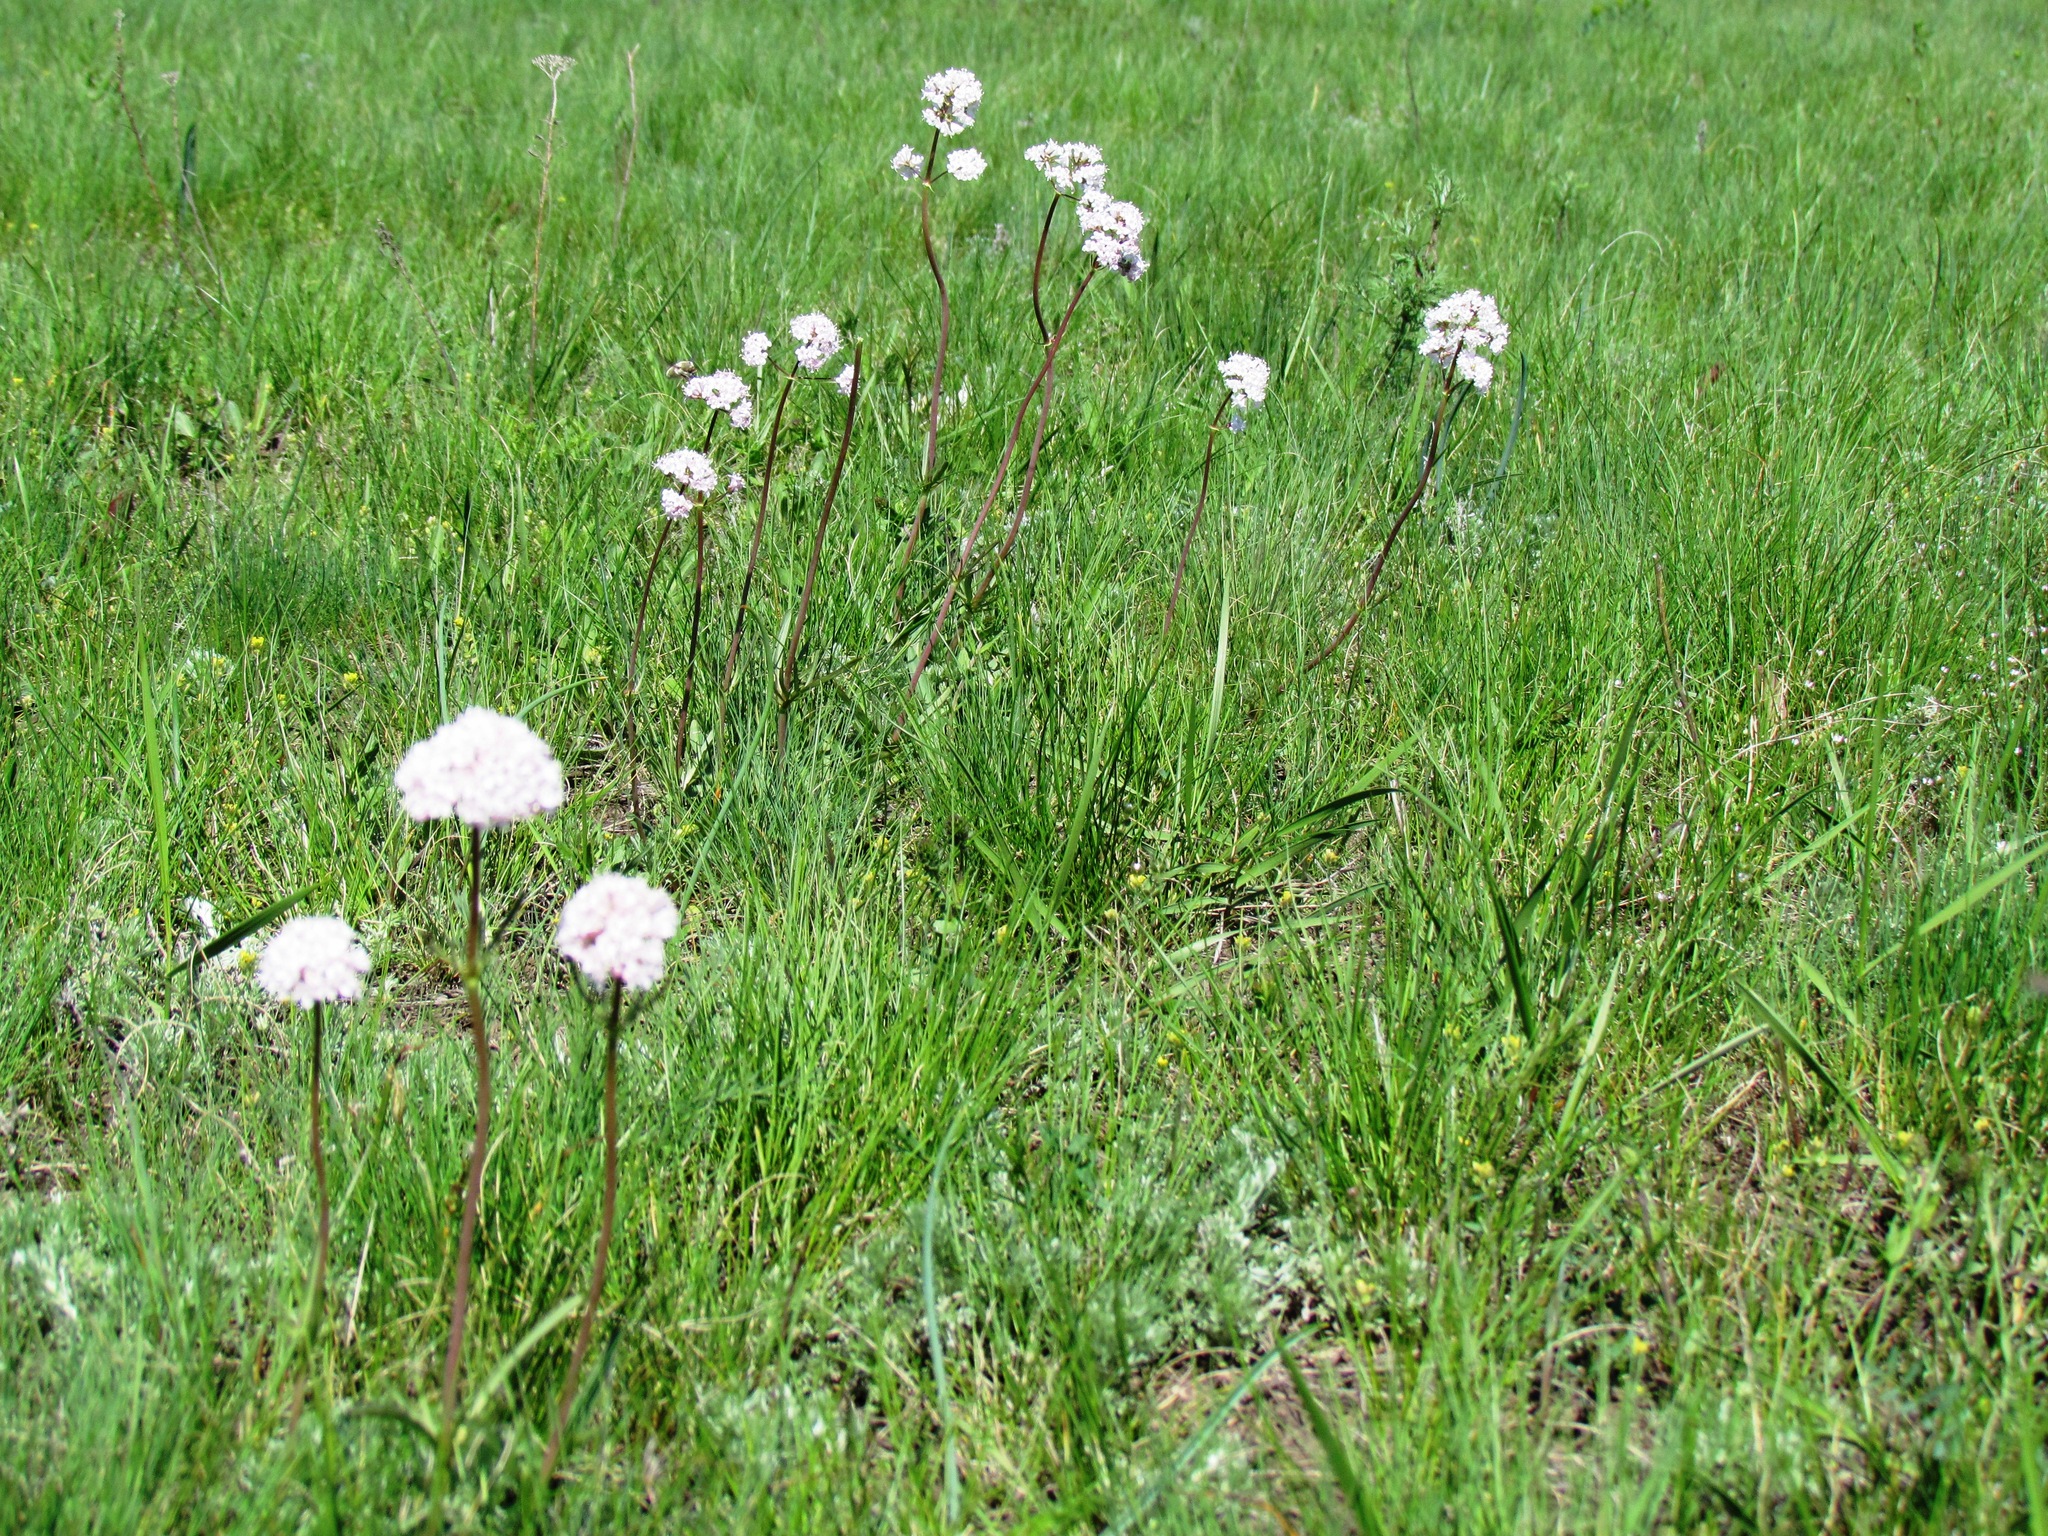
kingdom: Plantae
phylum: Tracheophyta
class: Magnoliopsida
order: Dipsacales
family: Caprifoliaceae
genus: Valeriana
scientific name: Valeriana tuberosa
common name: Tuberous valerian
